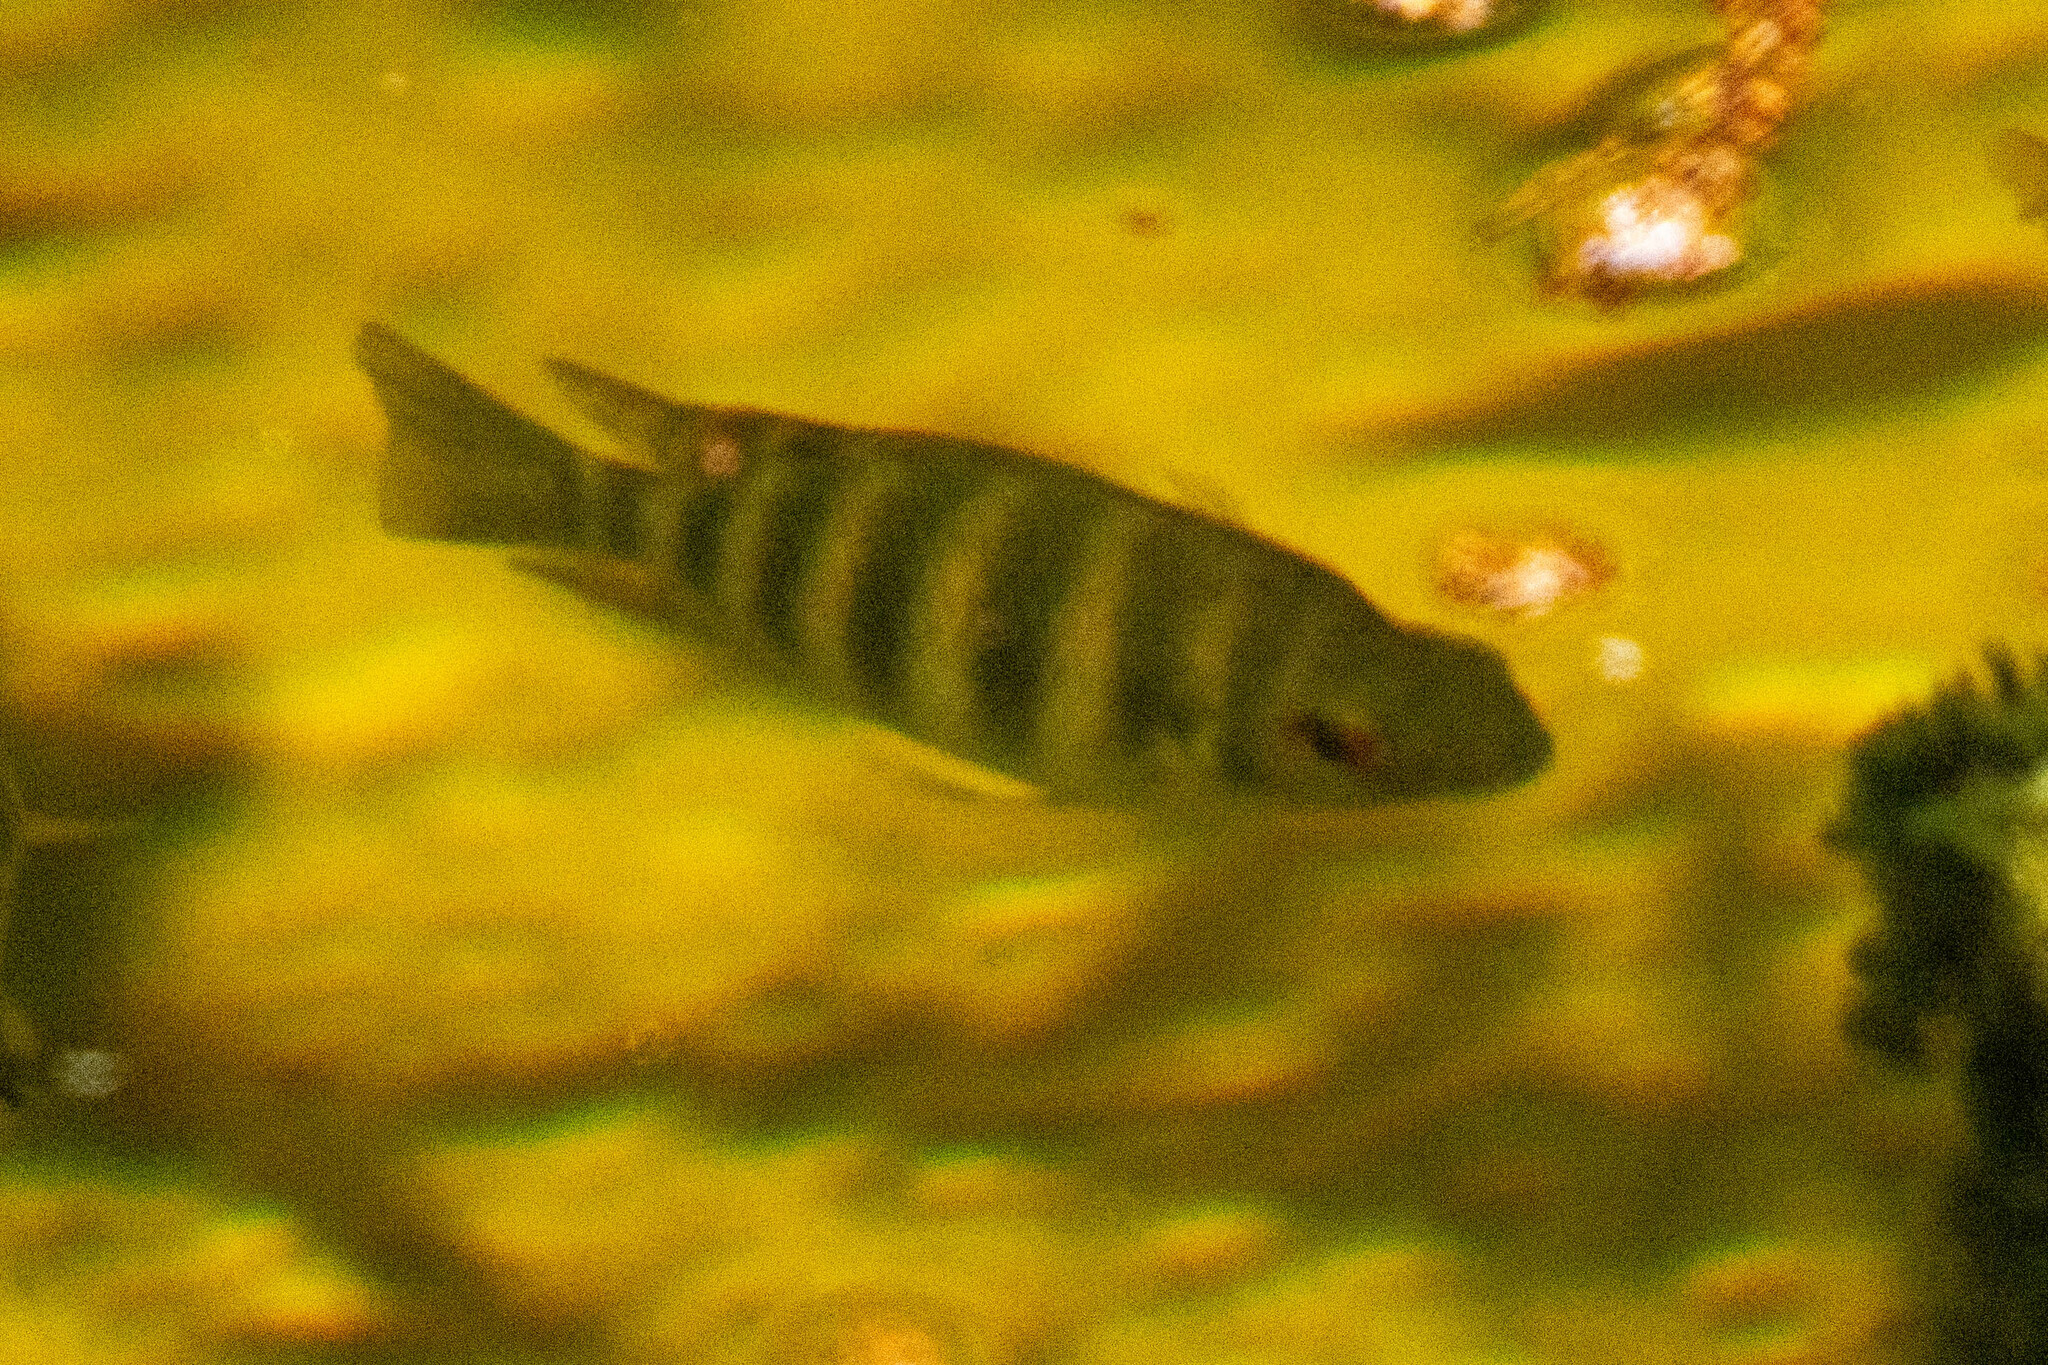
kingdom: Animalia
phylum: Chordata
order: Perciformes
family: Cichlidae
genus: Pelmatolapia
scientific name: Pelmatolapia mariae
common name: Spotted tilapia
